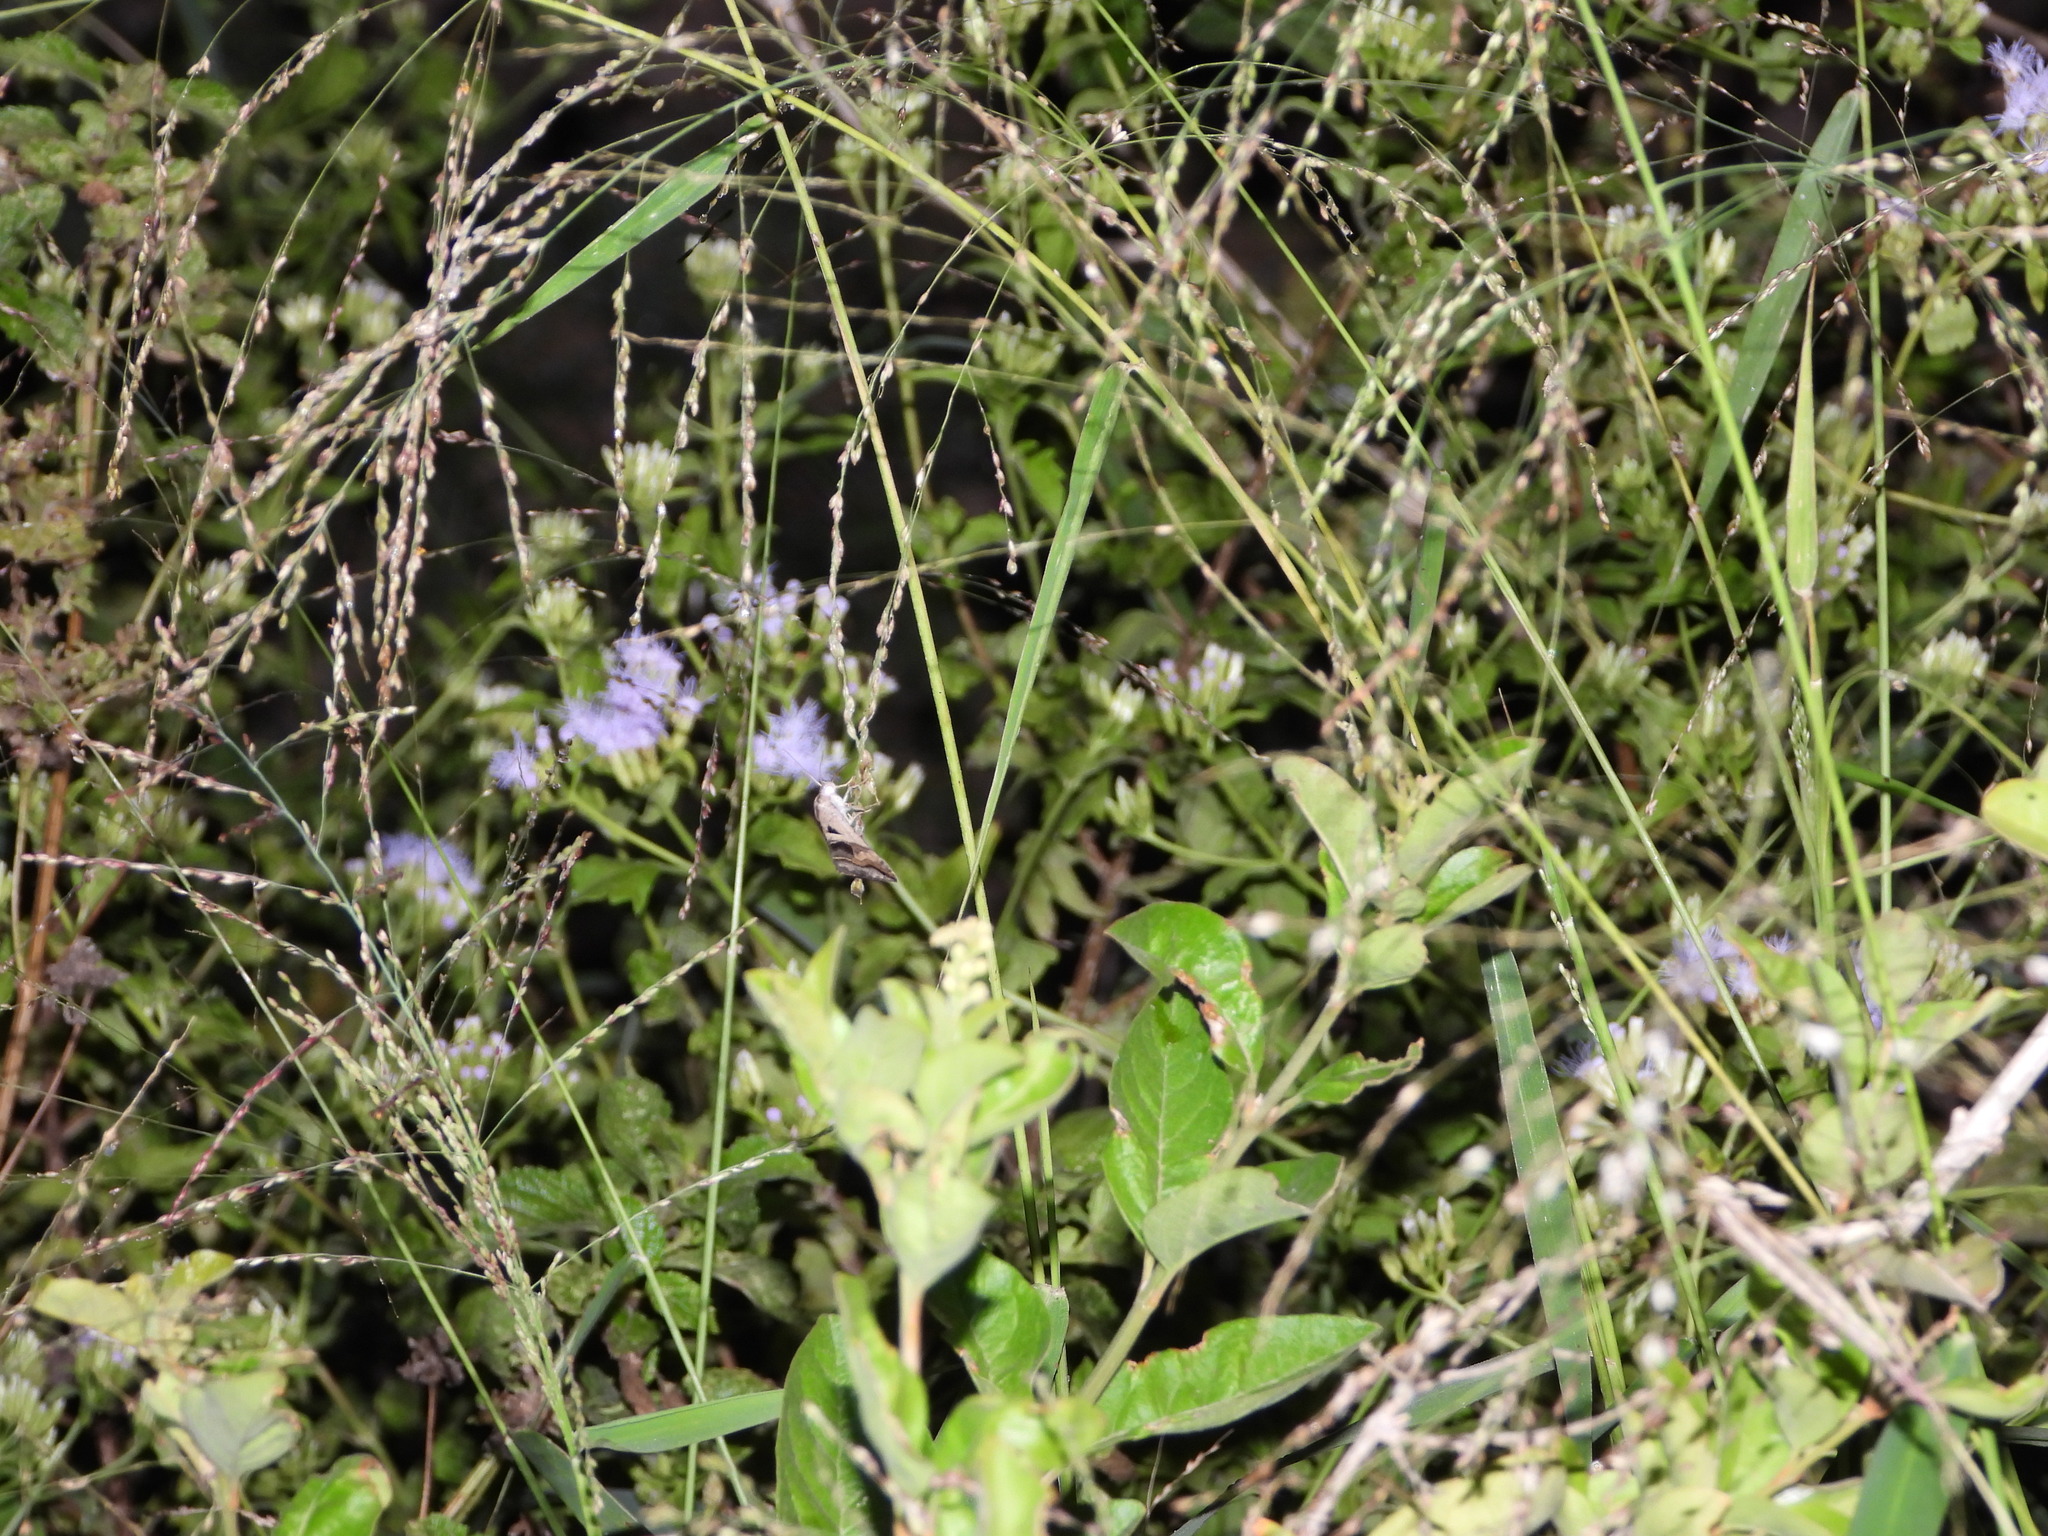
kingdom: Animalia
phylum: Arthropoda
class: Insecta
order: Lepidoptera
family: Erebidae
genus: Melipotis
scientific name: Melipotis cellaris
